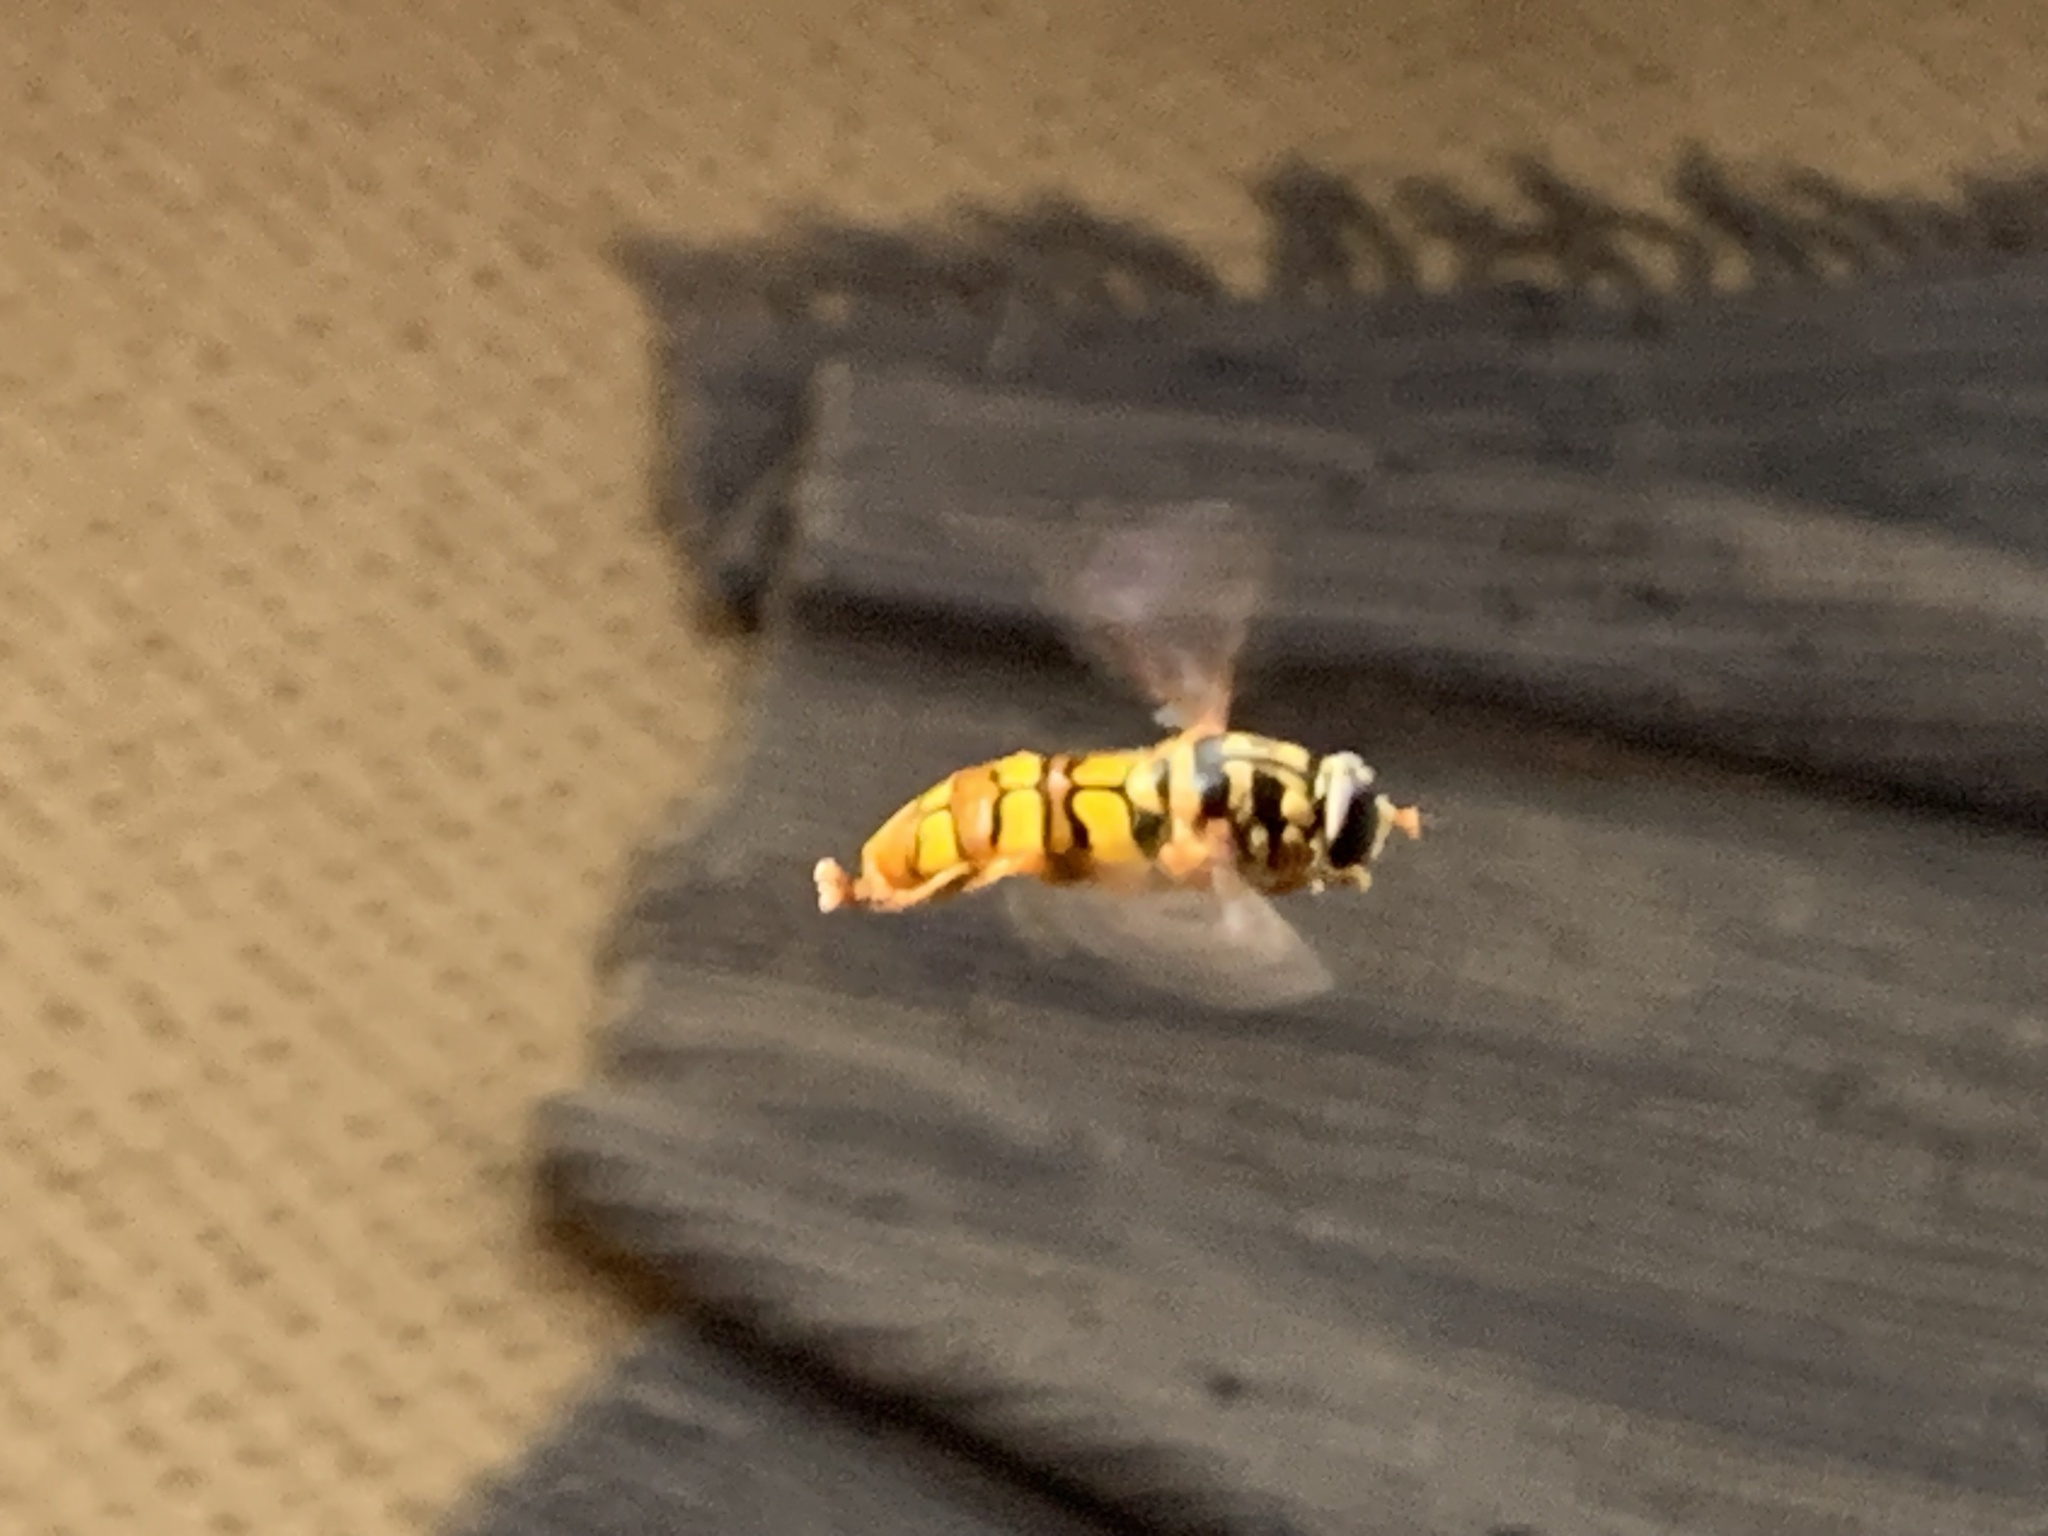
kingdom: Animalia
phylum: Arthropoda
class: Insecta
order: Diptera
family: Syrphidae
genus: Milesia
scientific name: Milesia virginiensis
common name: Virginia giant
